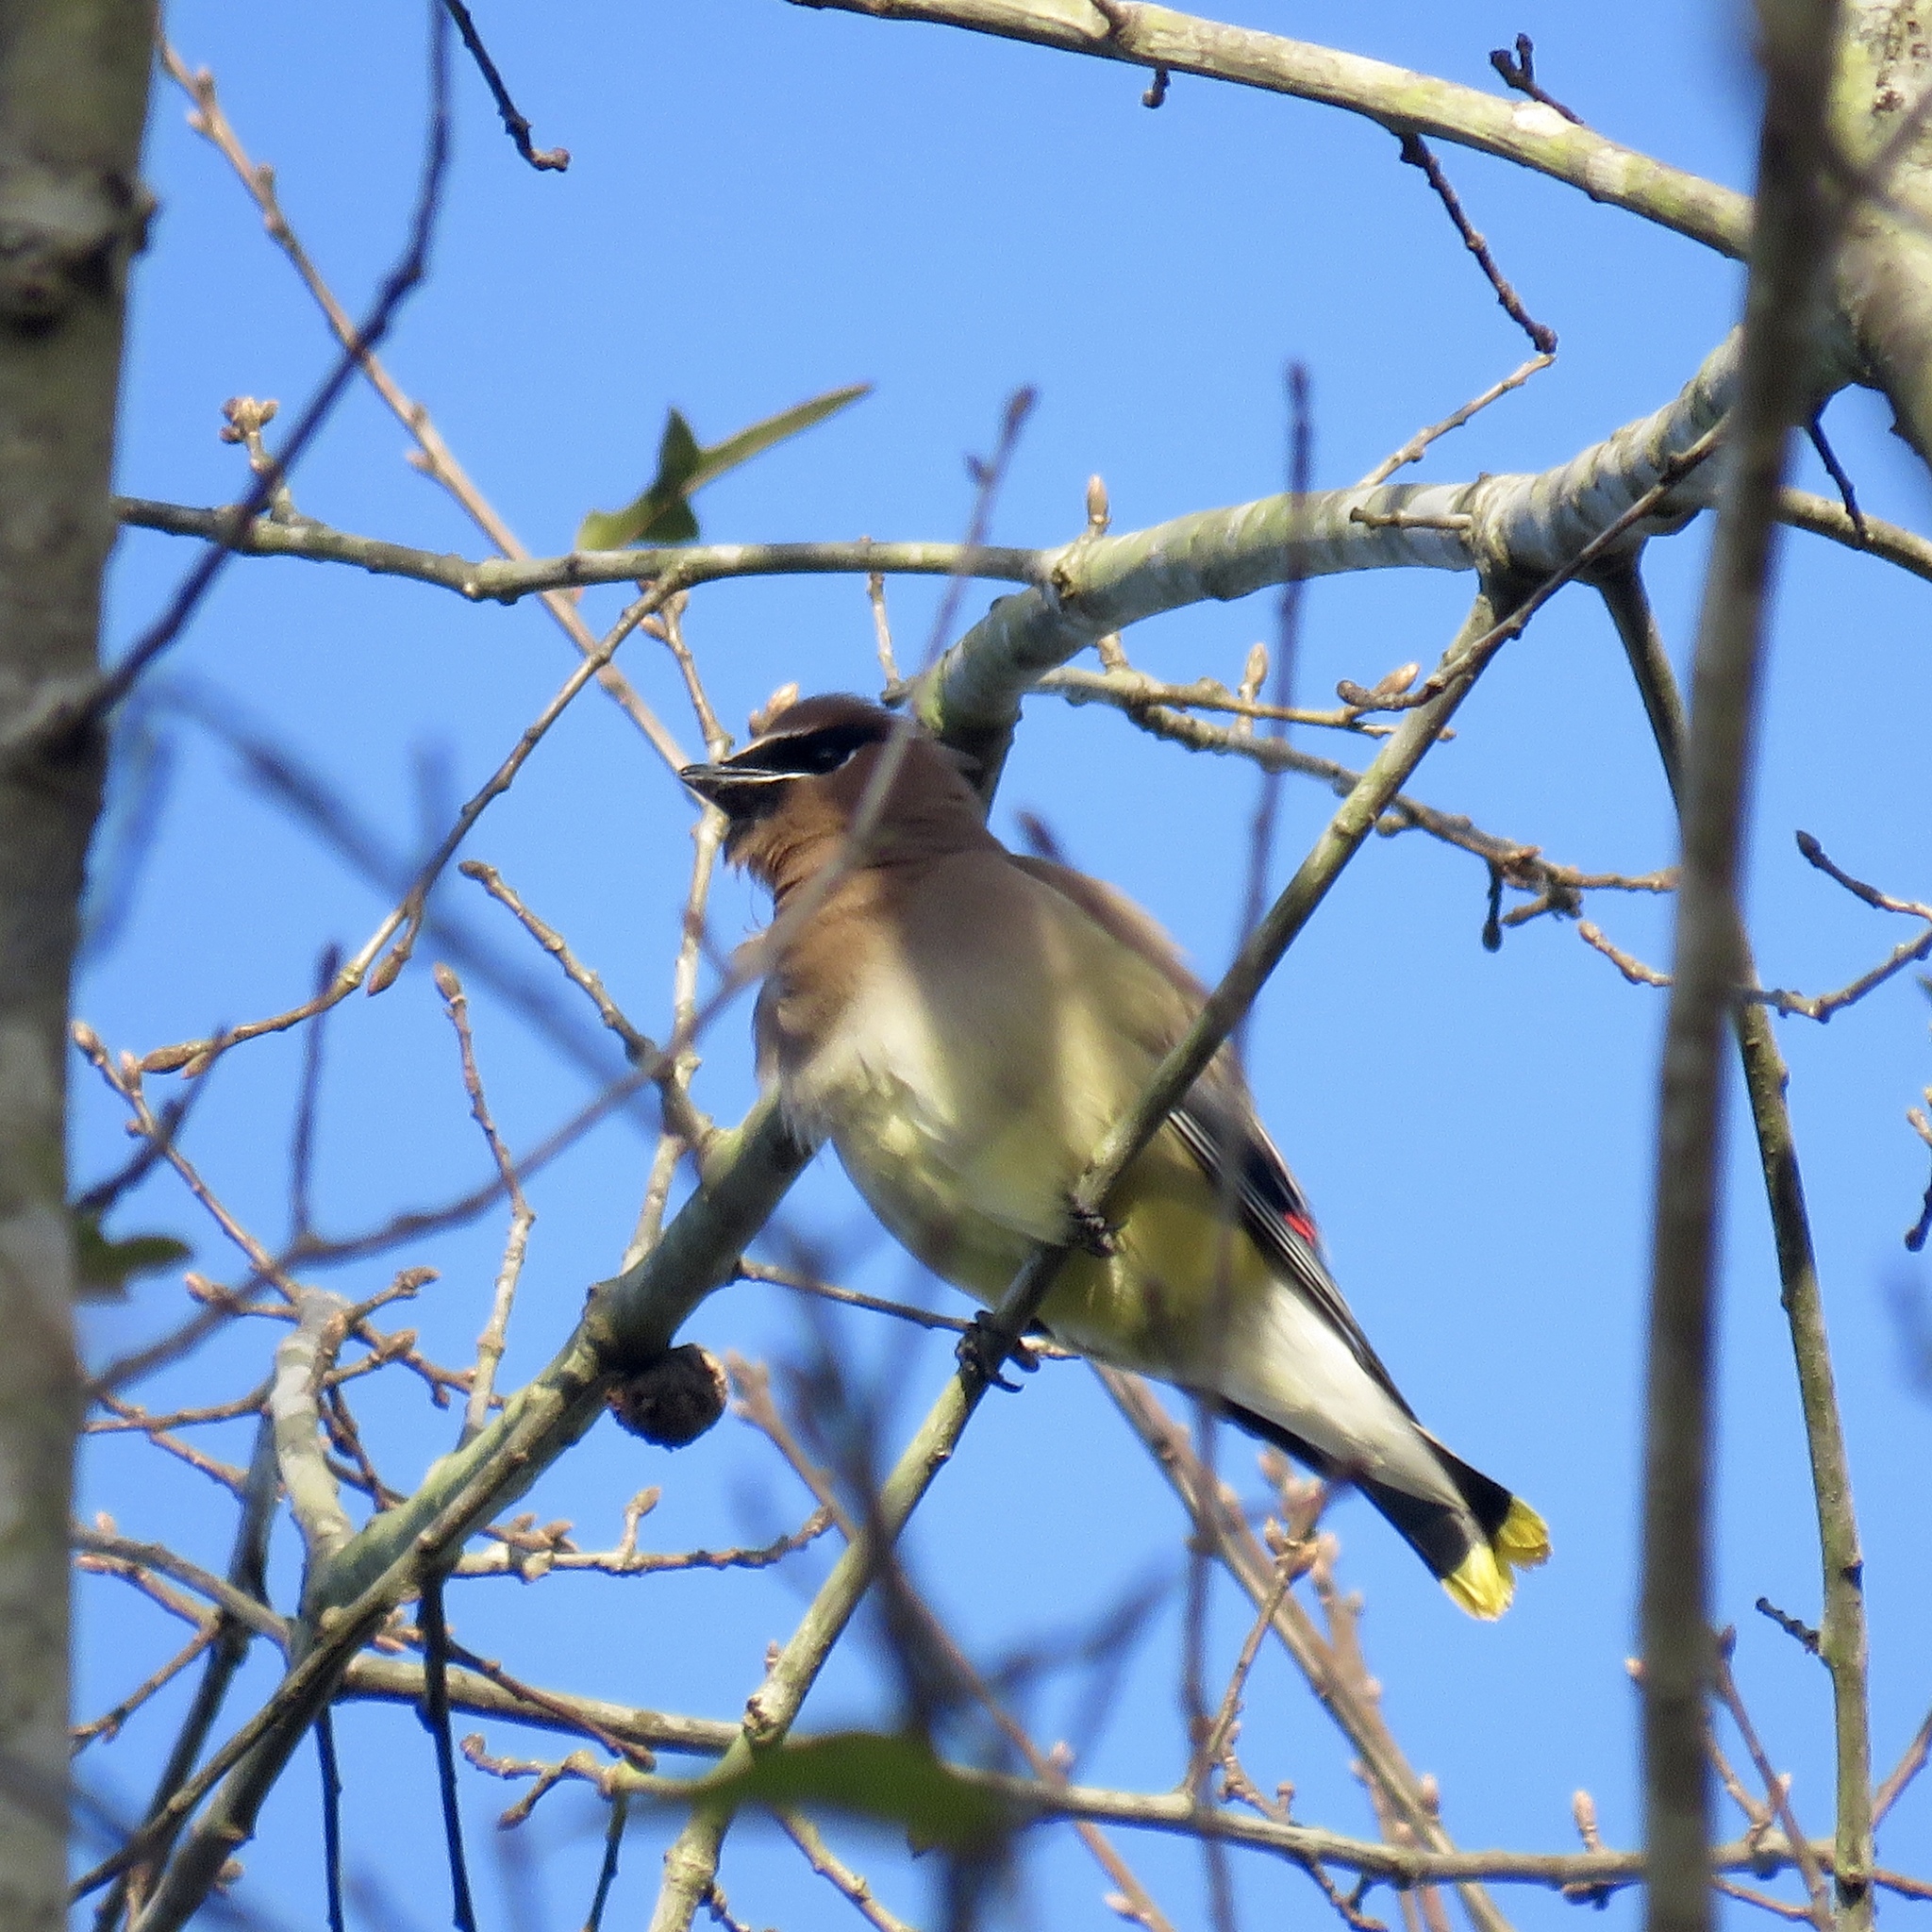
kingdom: Animalia
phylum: Chordata
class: Aves
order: Passeriformes
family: Bombycillidae
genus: Bombycilla
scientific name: Bombycilla cedrorum
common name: Cedar waxwing
